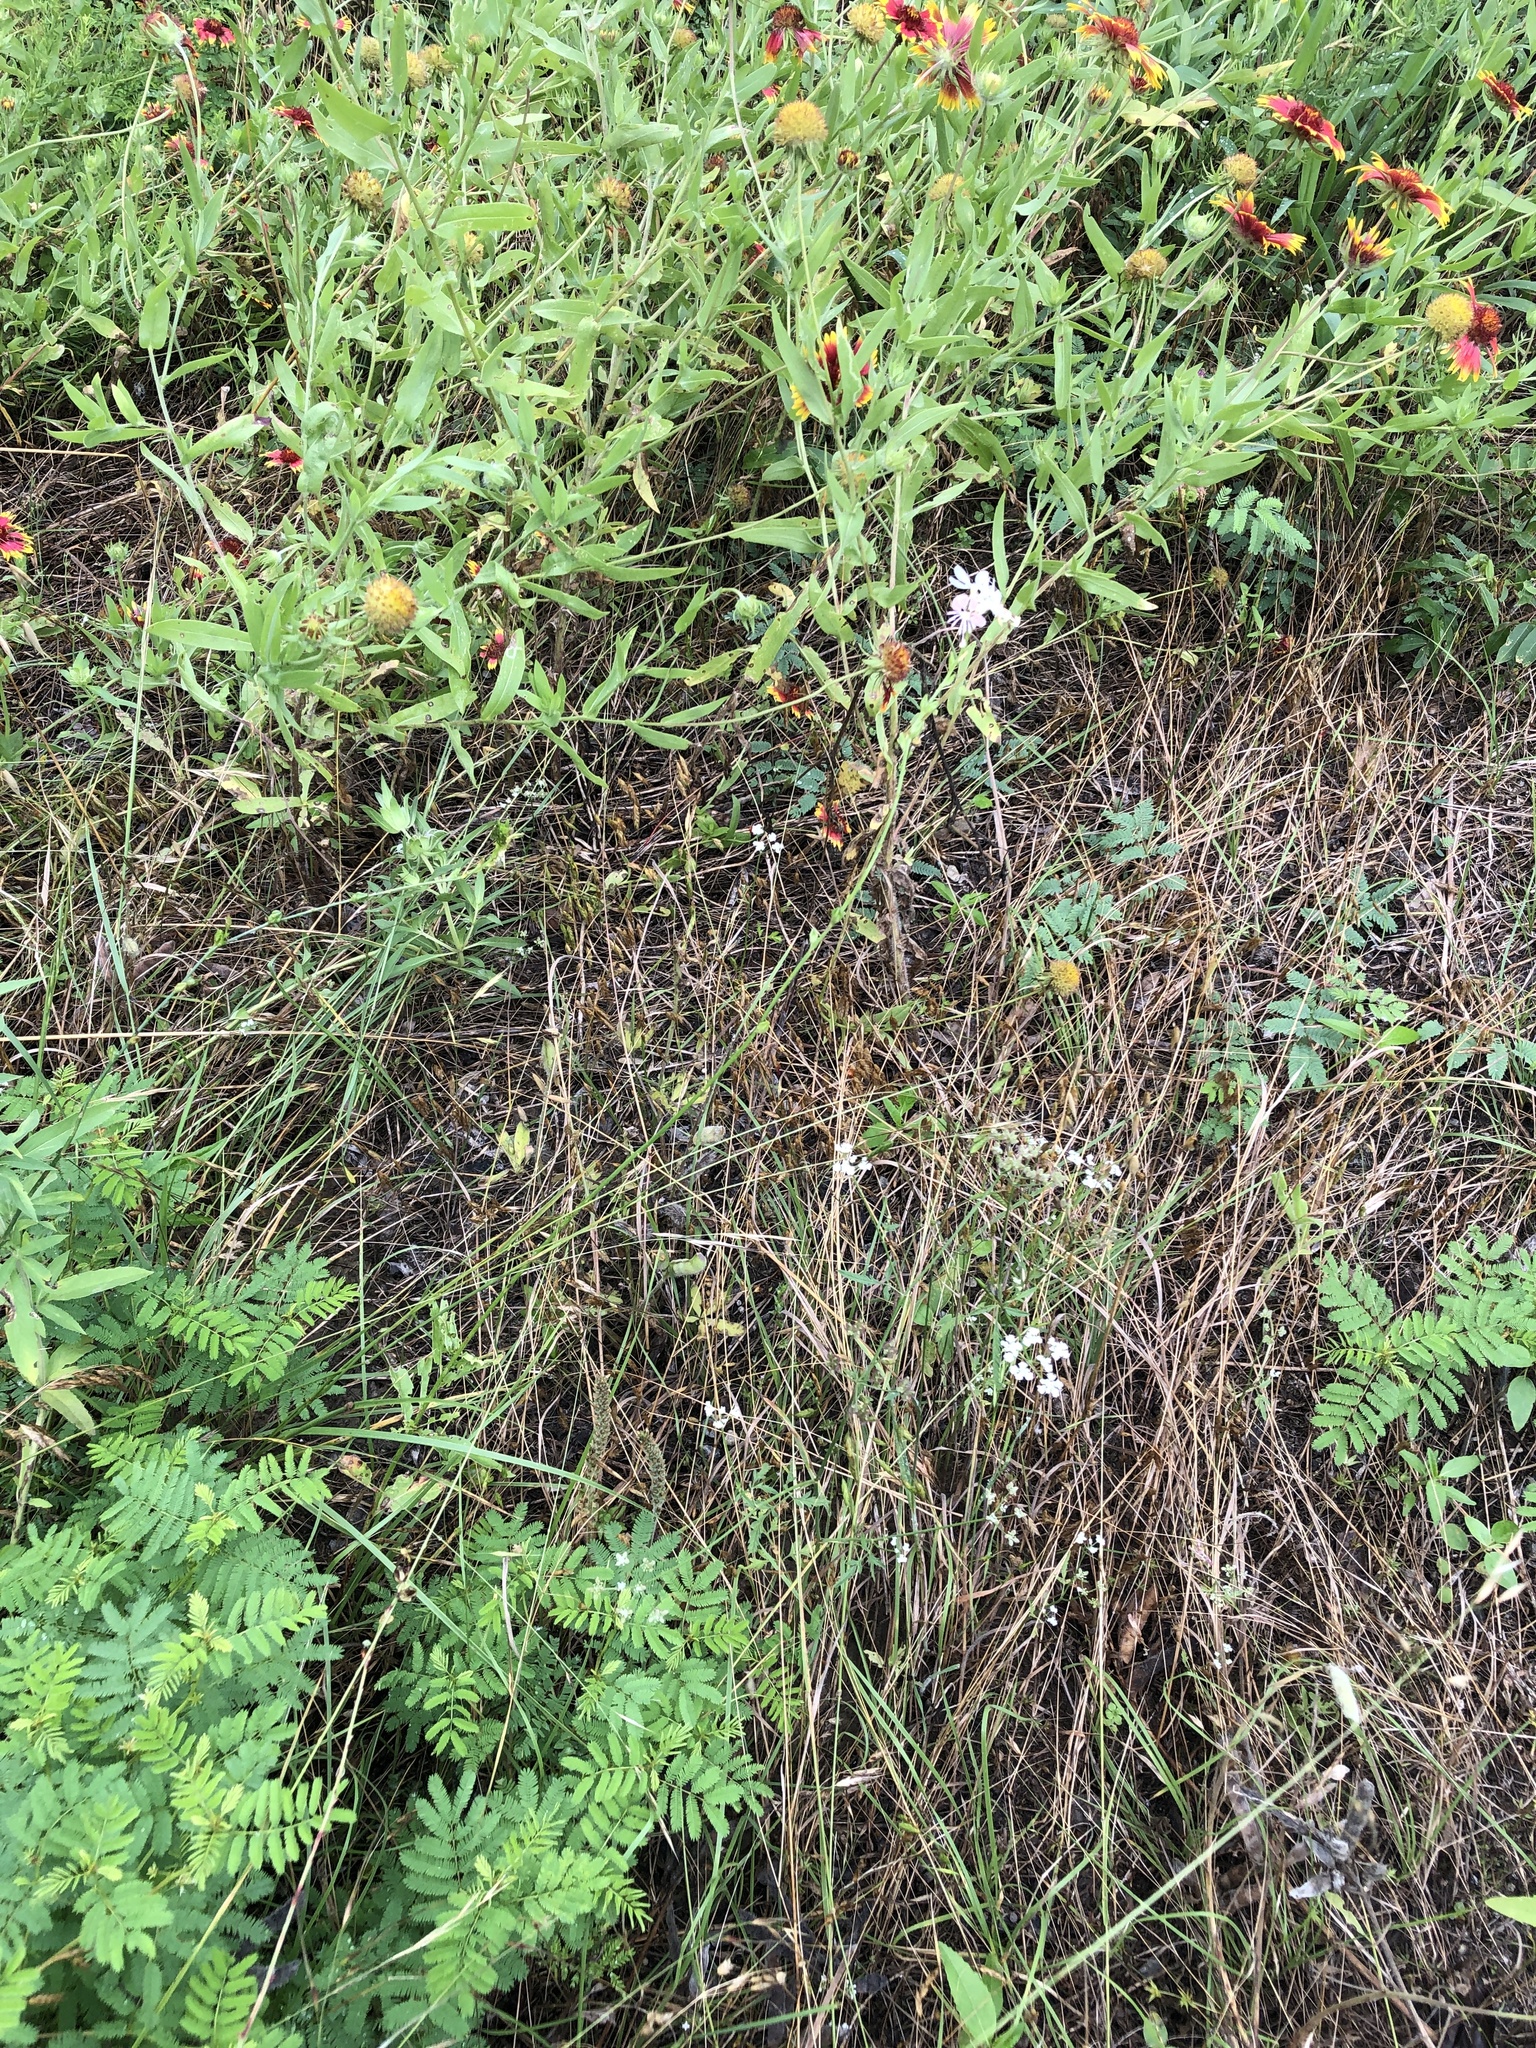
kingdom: Plantae
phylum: Tracheophyta
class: Magnoliopsida
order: Myrtales
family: Onagraceae
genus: Oenothera
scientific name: Oenothera suffulta
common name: Kisses
